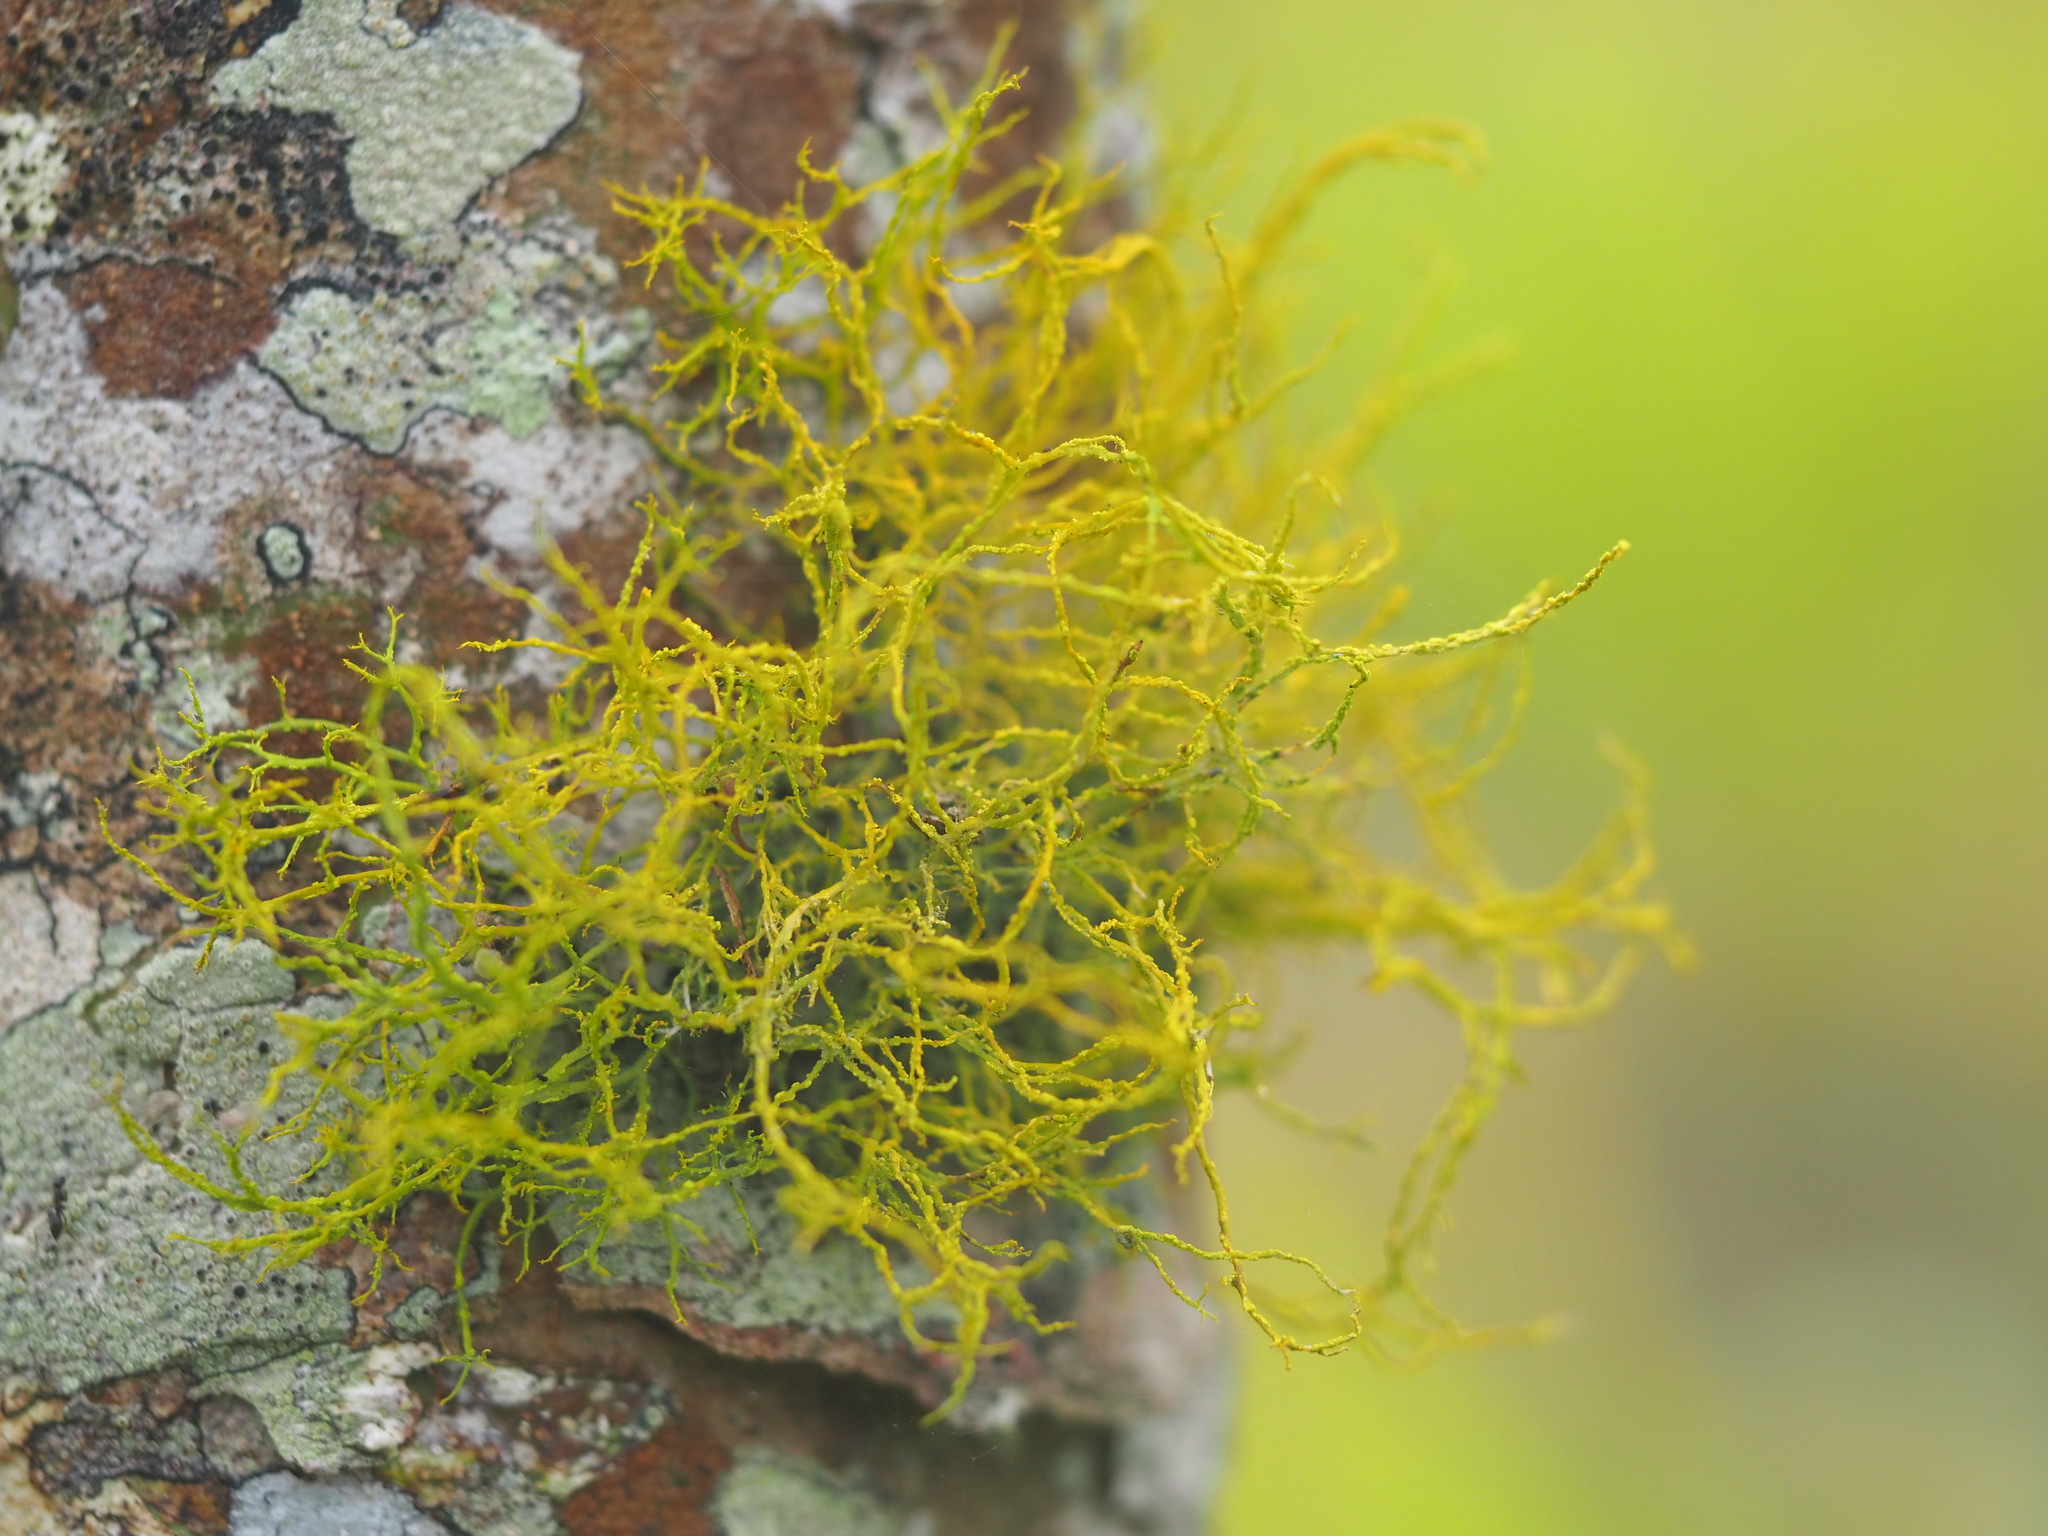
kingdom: Fungi
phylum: Ascomycota
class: Lecanoromycetes
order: Teloschistales
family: Teloschistaceae
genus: Teloschistes
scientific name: Teloschistes flavicans
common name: Golden hair-lichen
